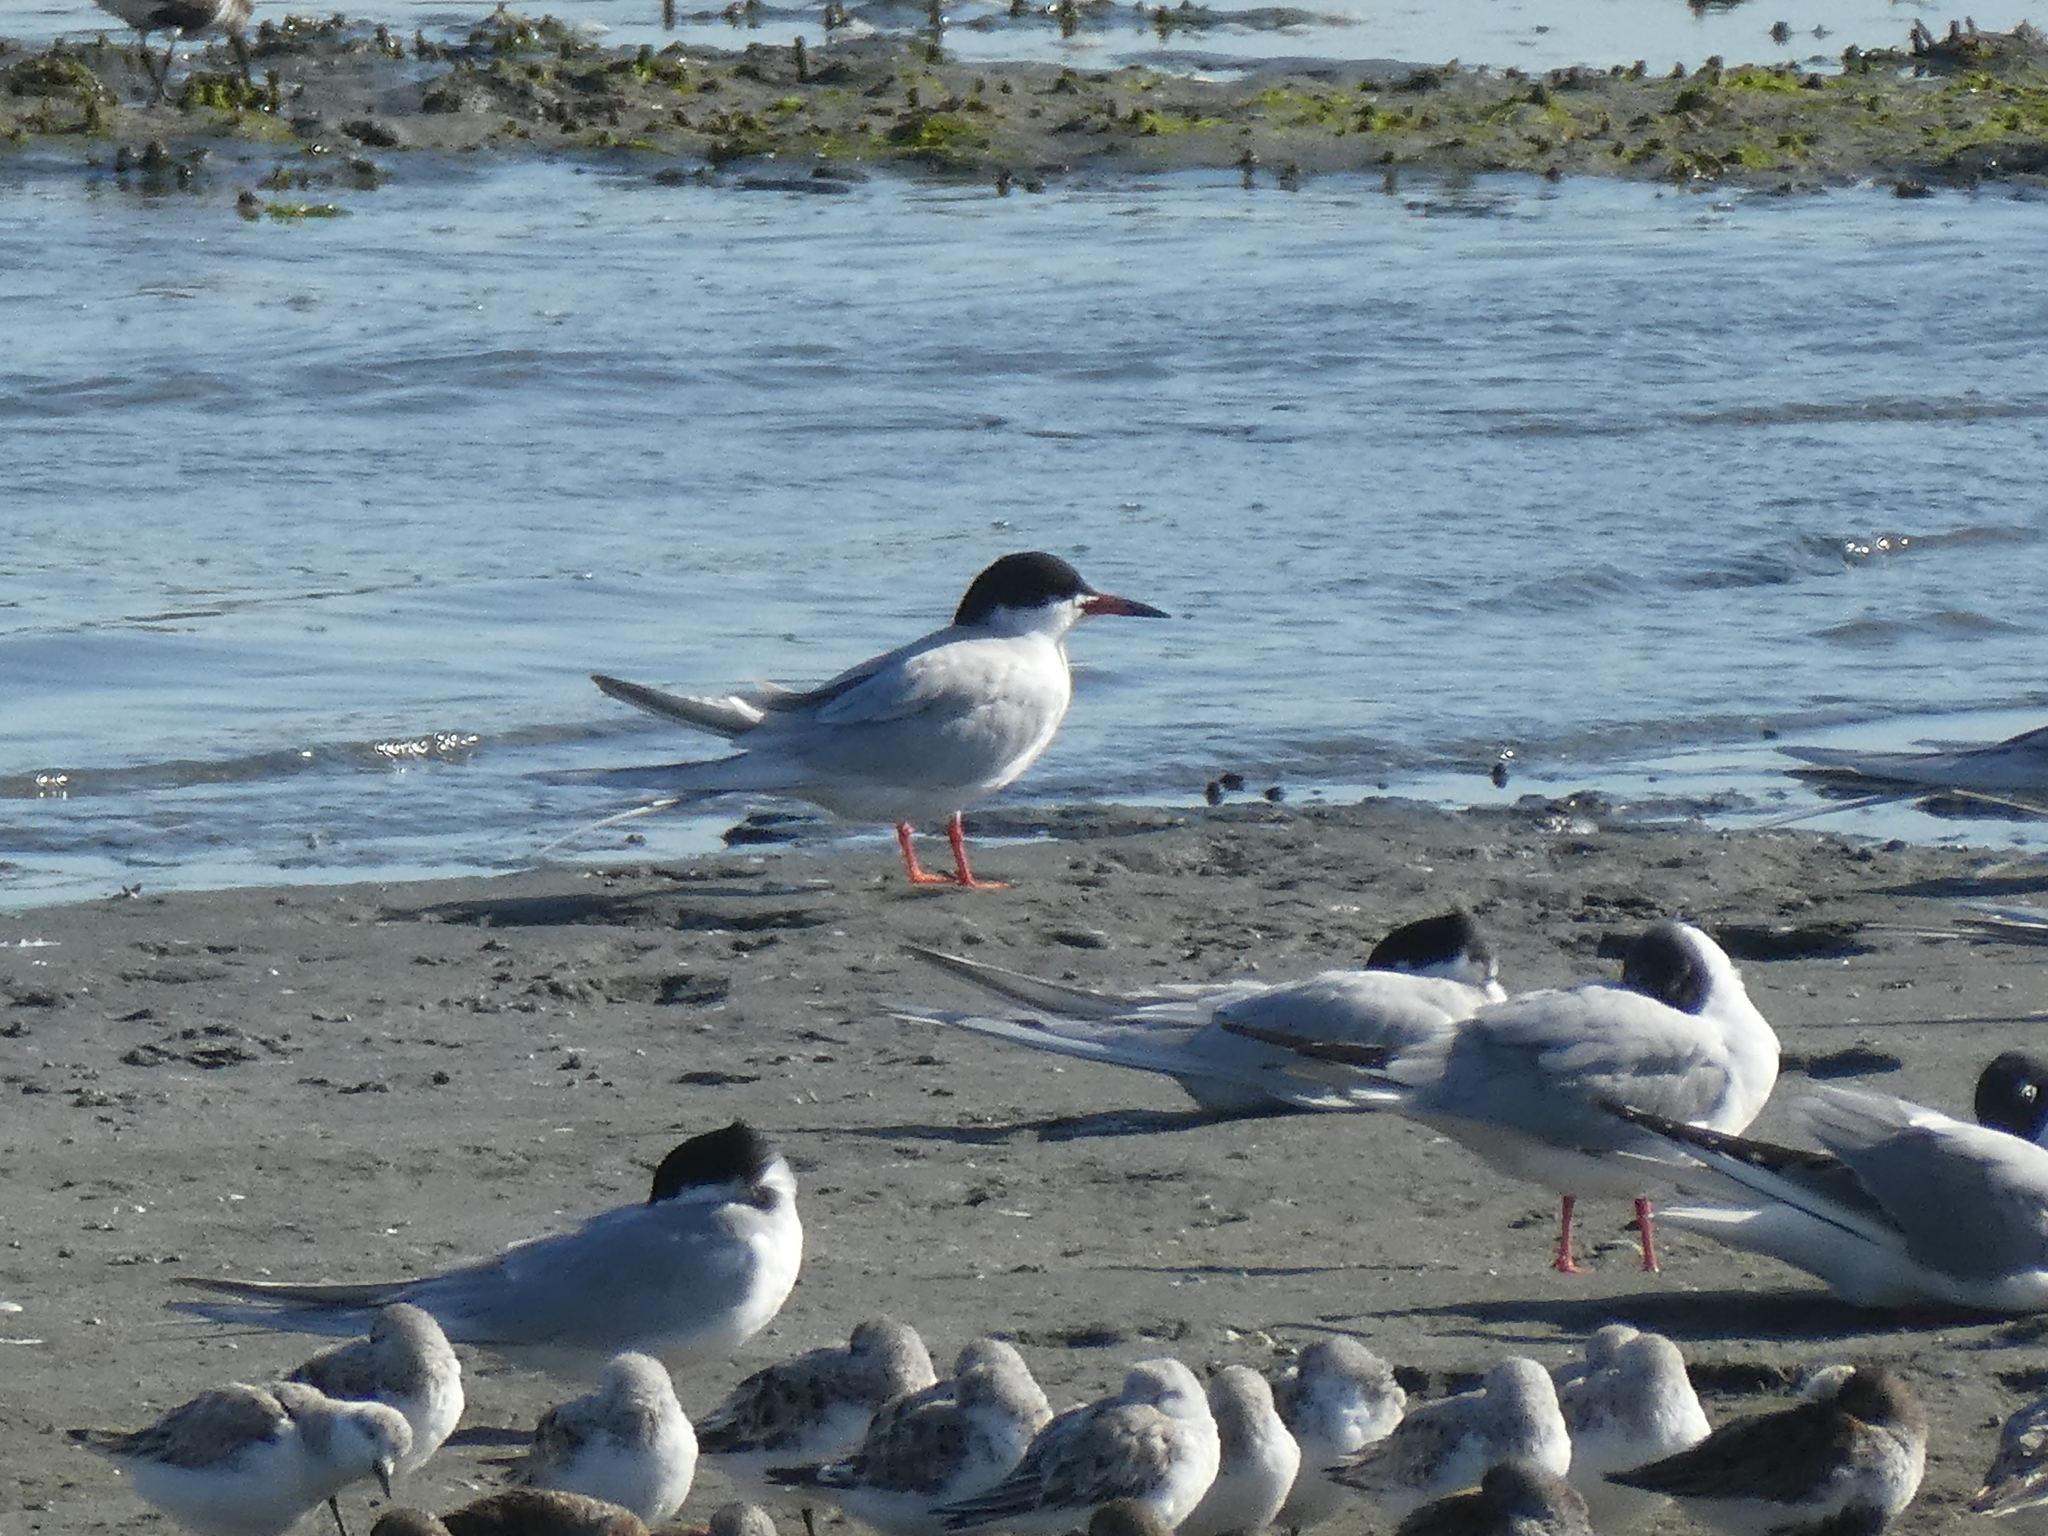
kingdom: Animalia
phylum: Chordata
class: Aves
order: Charadriiformes
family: Laridae
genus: Sterna
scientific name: Sterna forsteri
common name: Forster's tern
